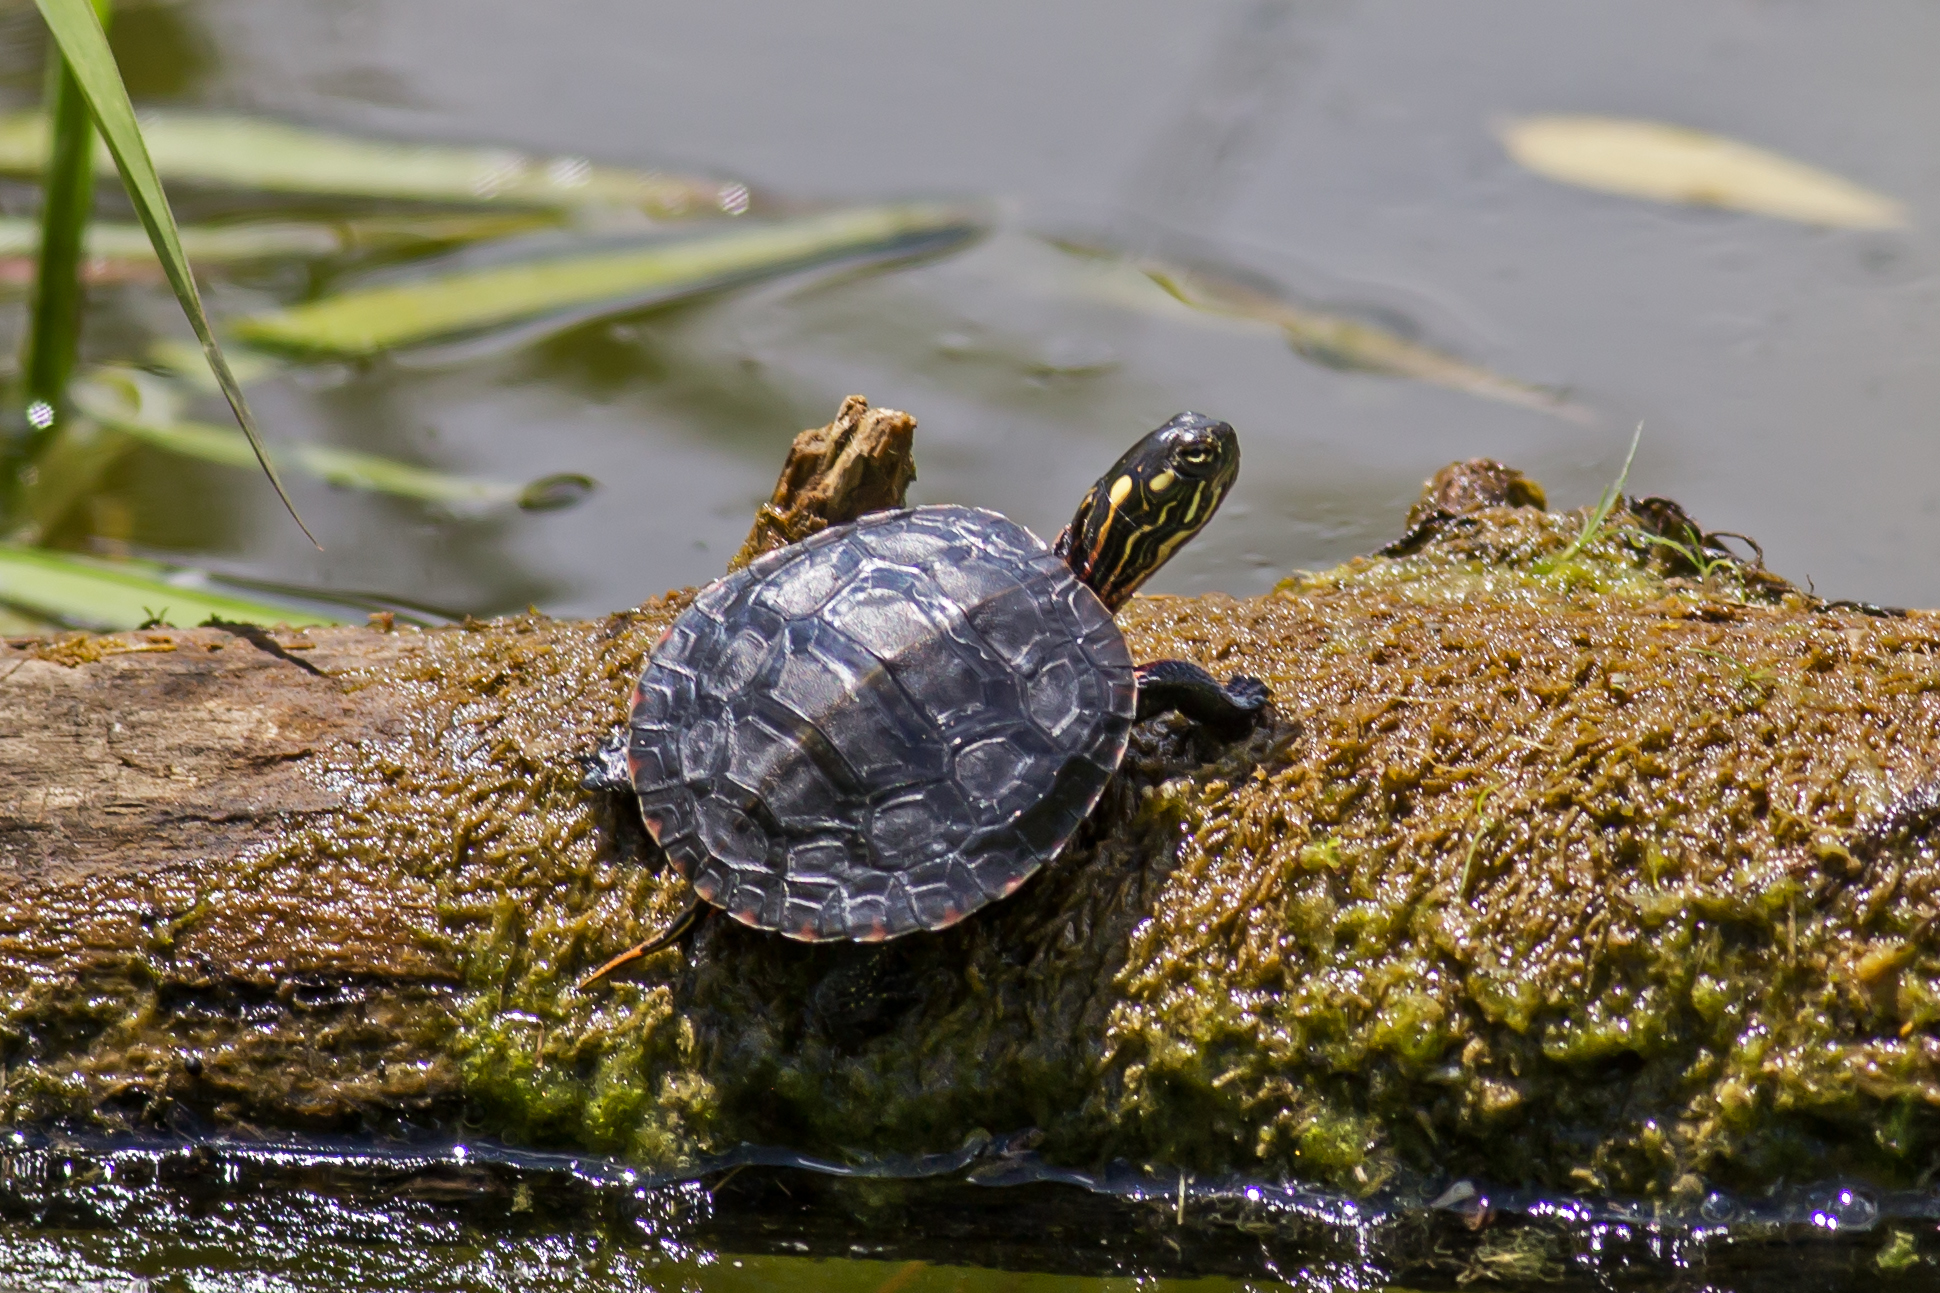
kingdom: Animalia
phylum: Chordata
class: Testudines
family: Emydidae
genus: Chrysemys
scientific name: Chrysemys picta
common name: Painted turtle
